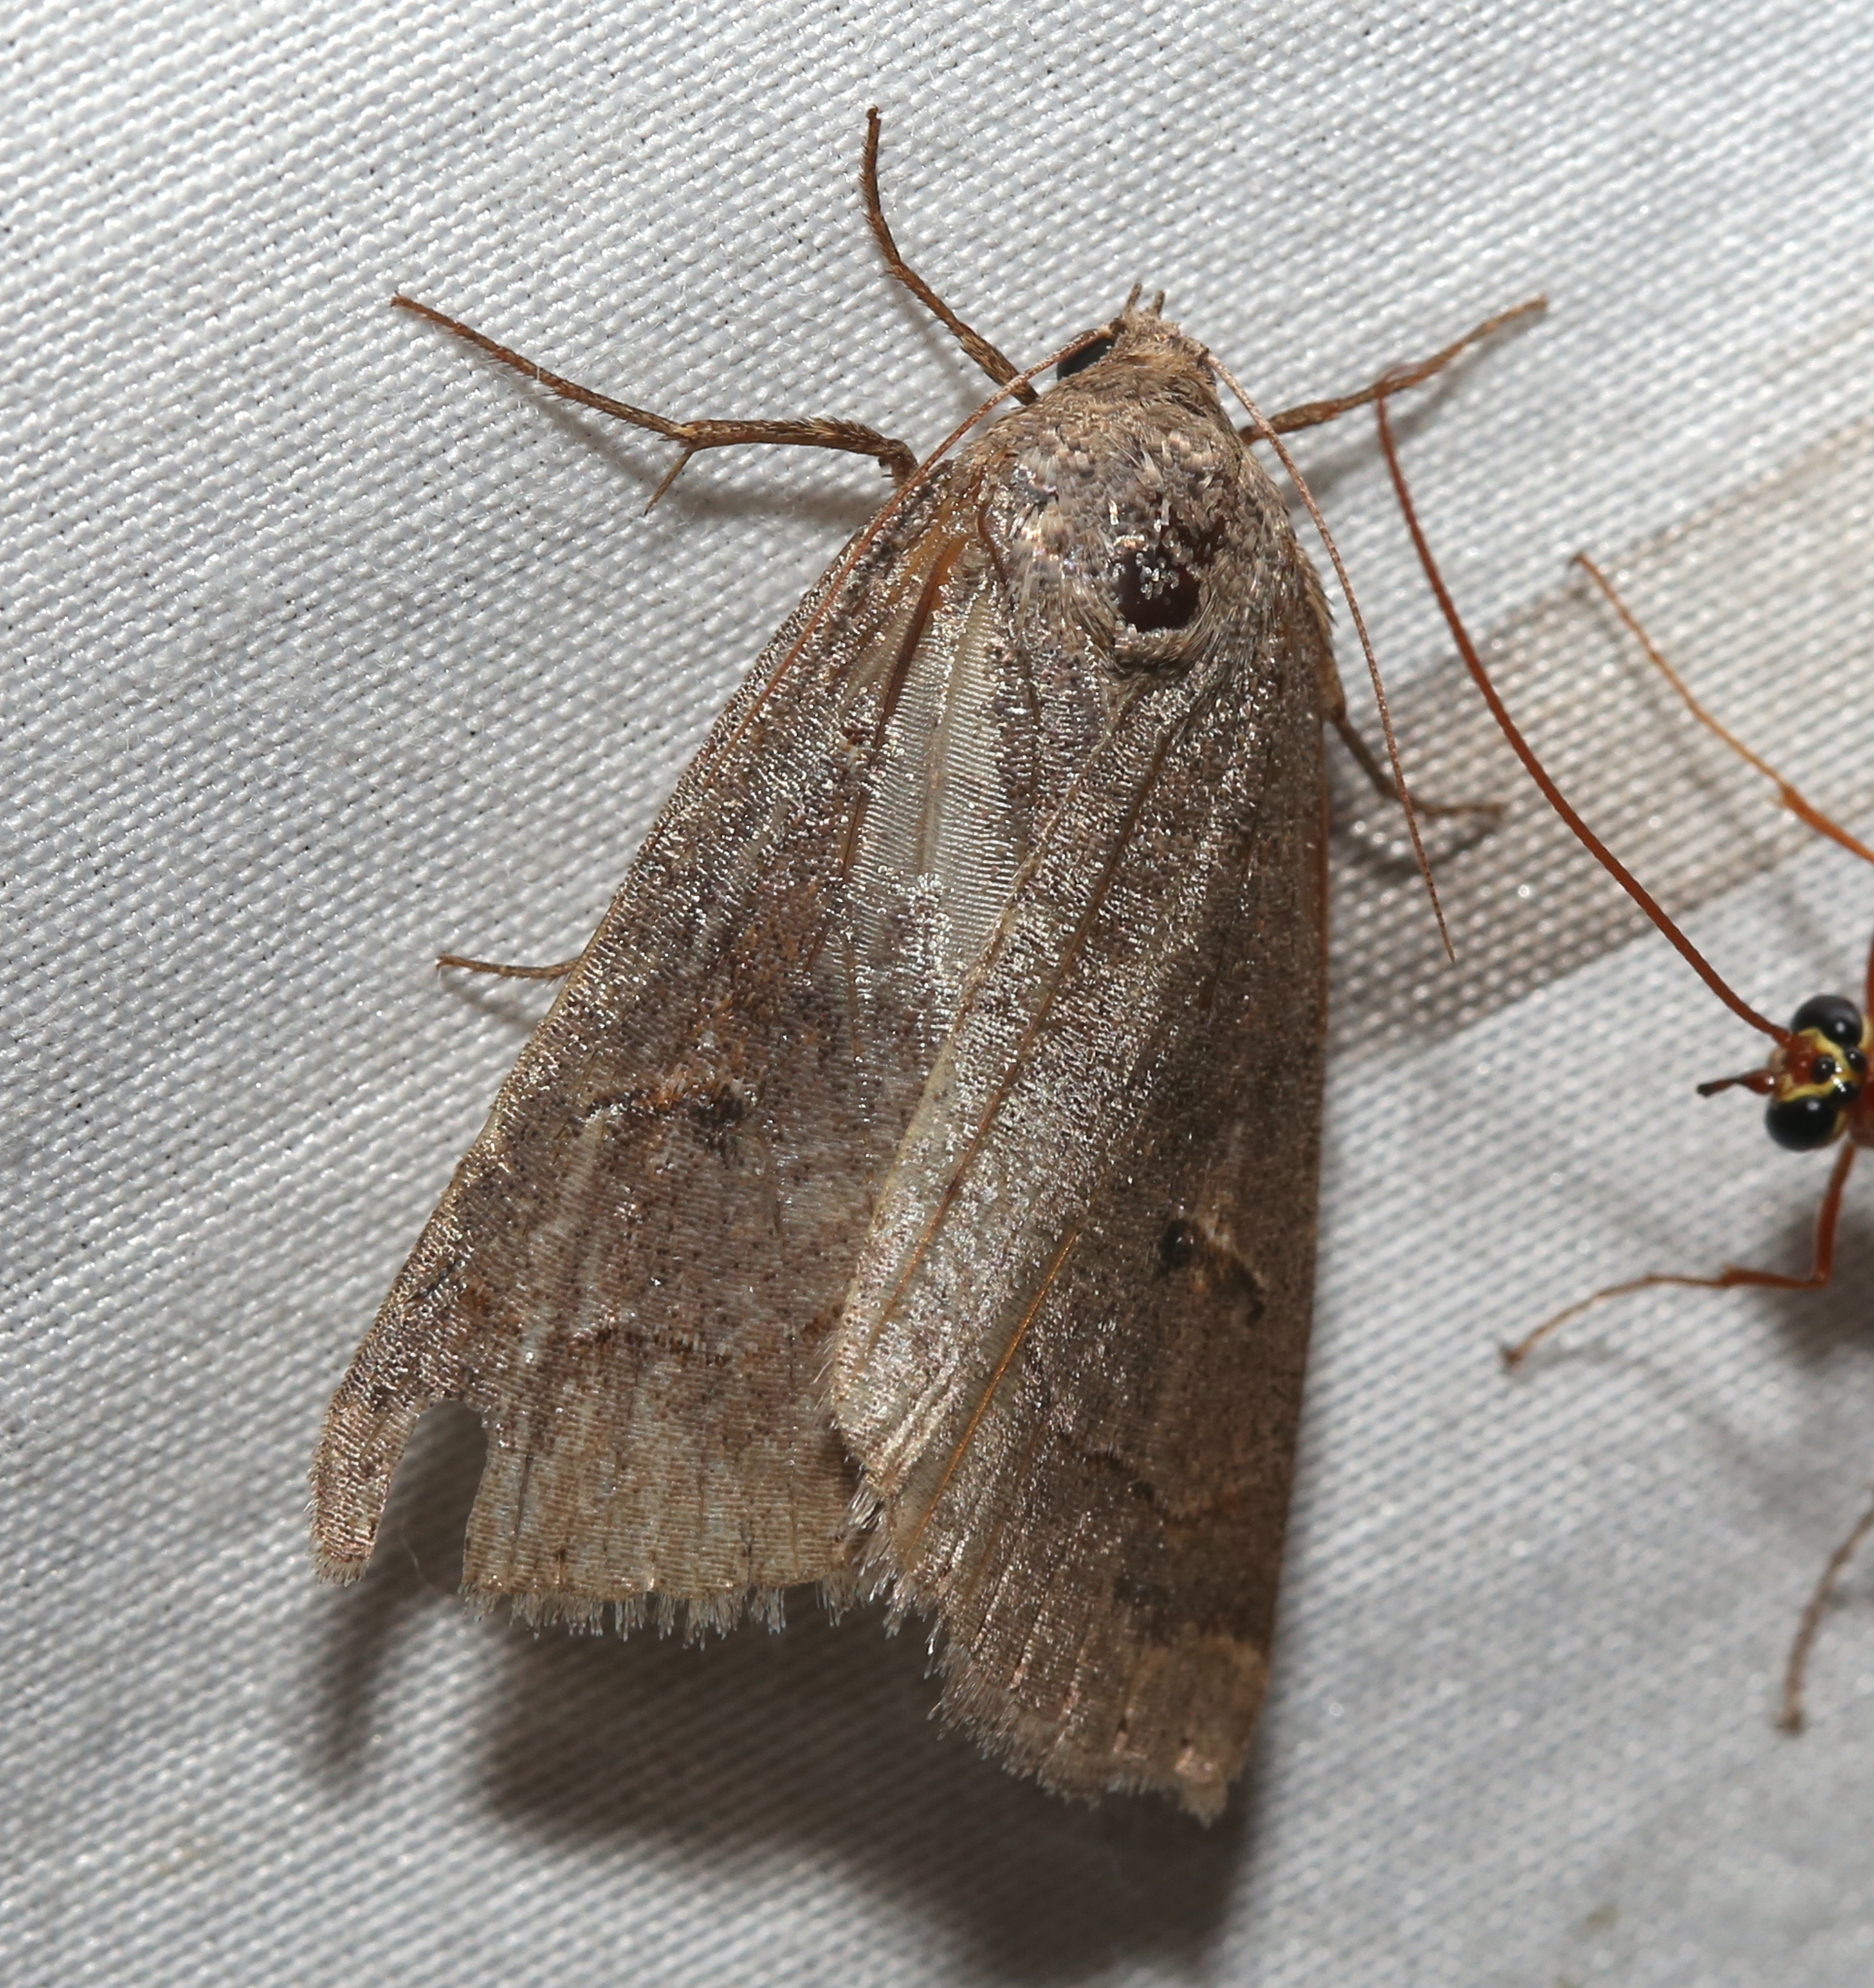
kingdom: Animalia
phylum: Arthropoda
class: Insecta
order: Lepidoptera
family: Erebidae
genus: Phoberia
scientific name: Phoberia atomaris
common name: Common oak moth
